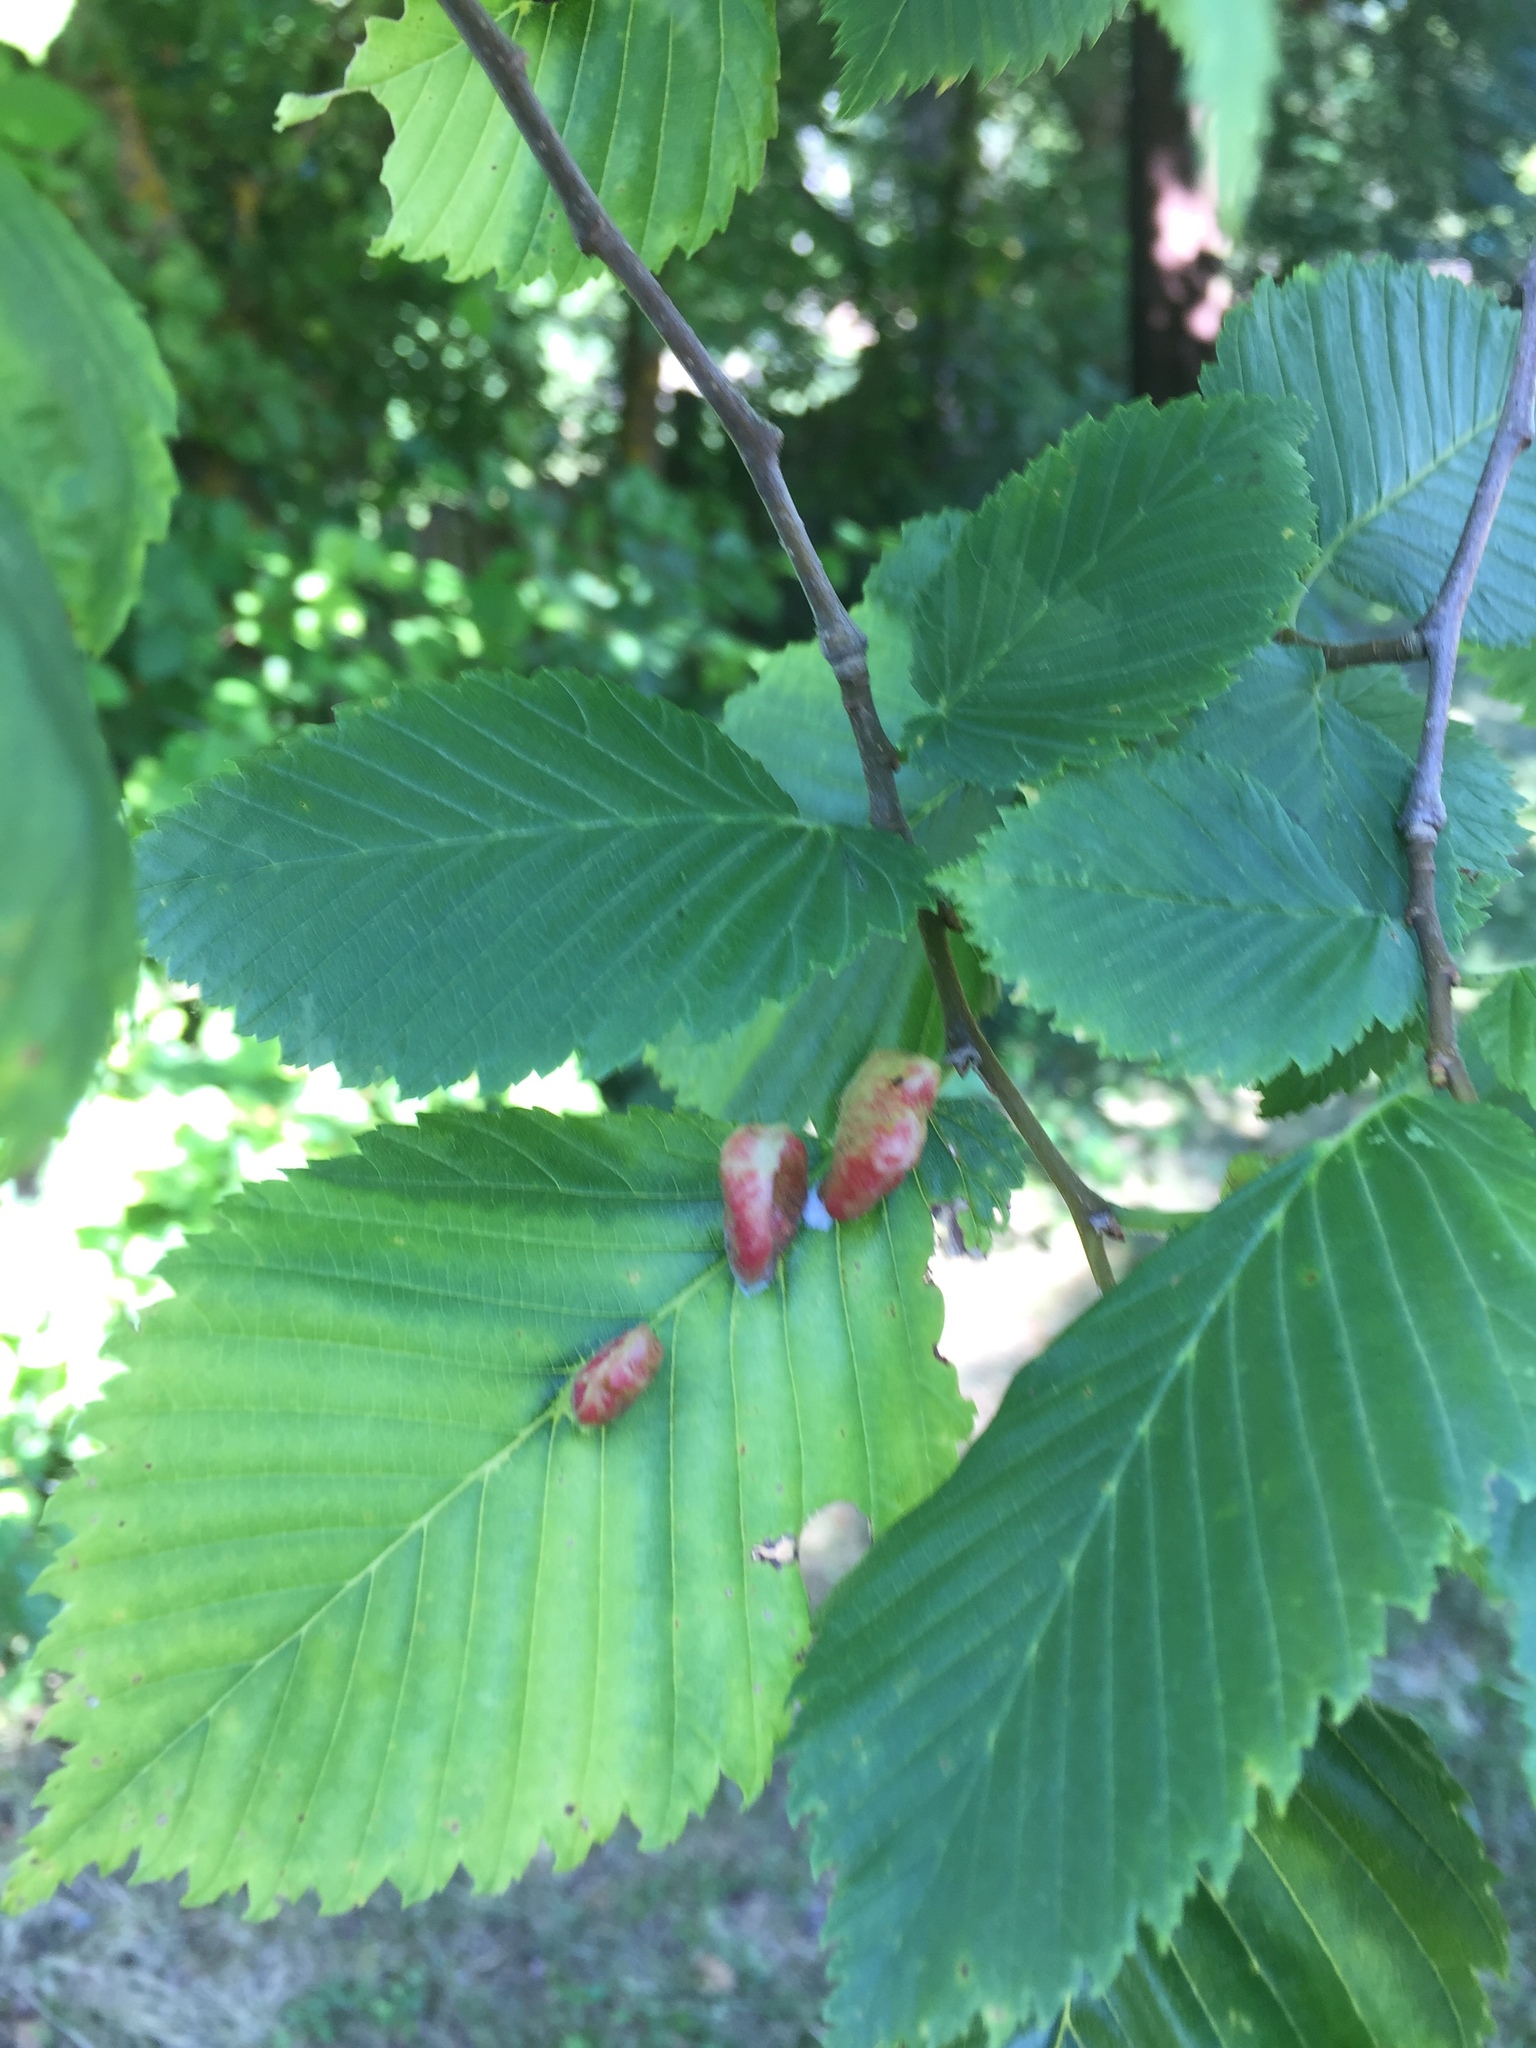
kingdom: Plantae
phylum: Tracheophyta
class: Magnoliopsida
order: Fagales
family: Betulaceae
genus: Carpinus
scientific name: Carpinus betulus
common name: Hornbeam
